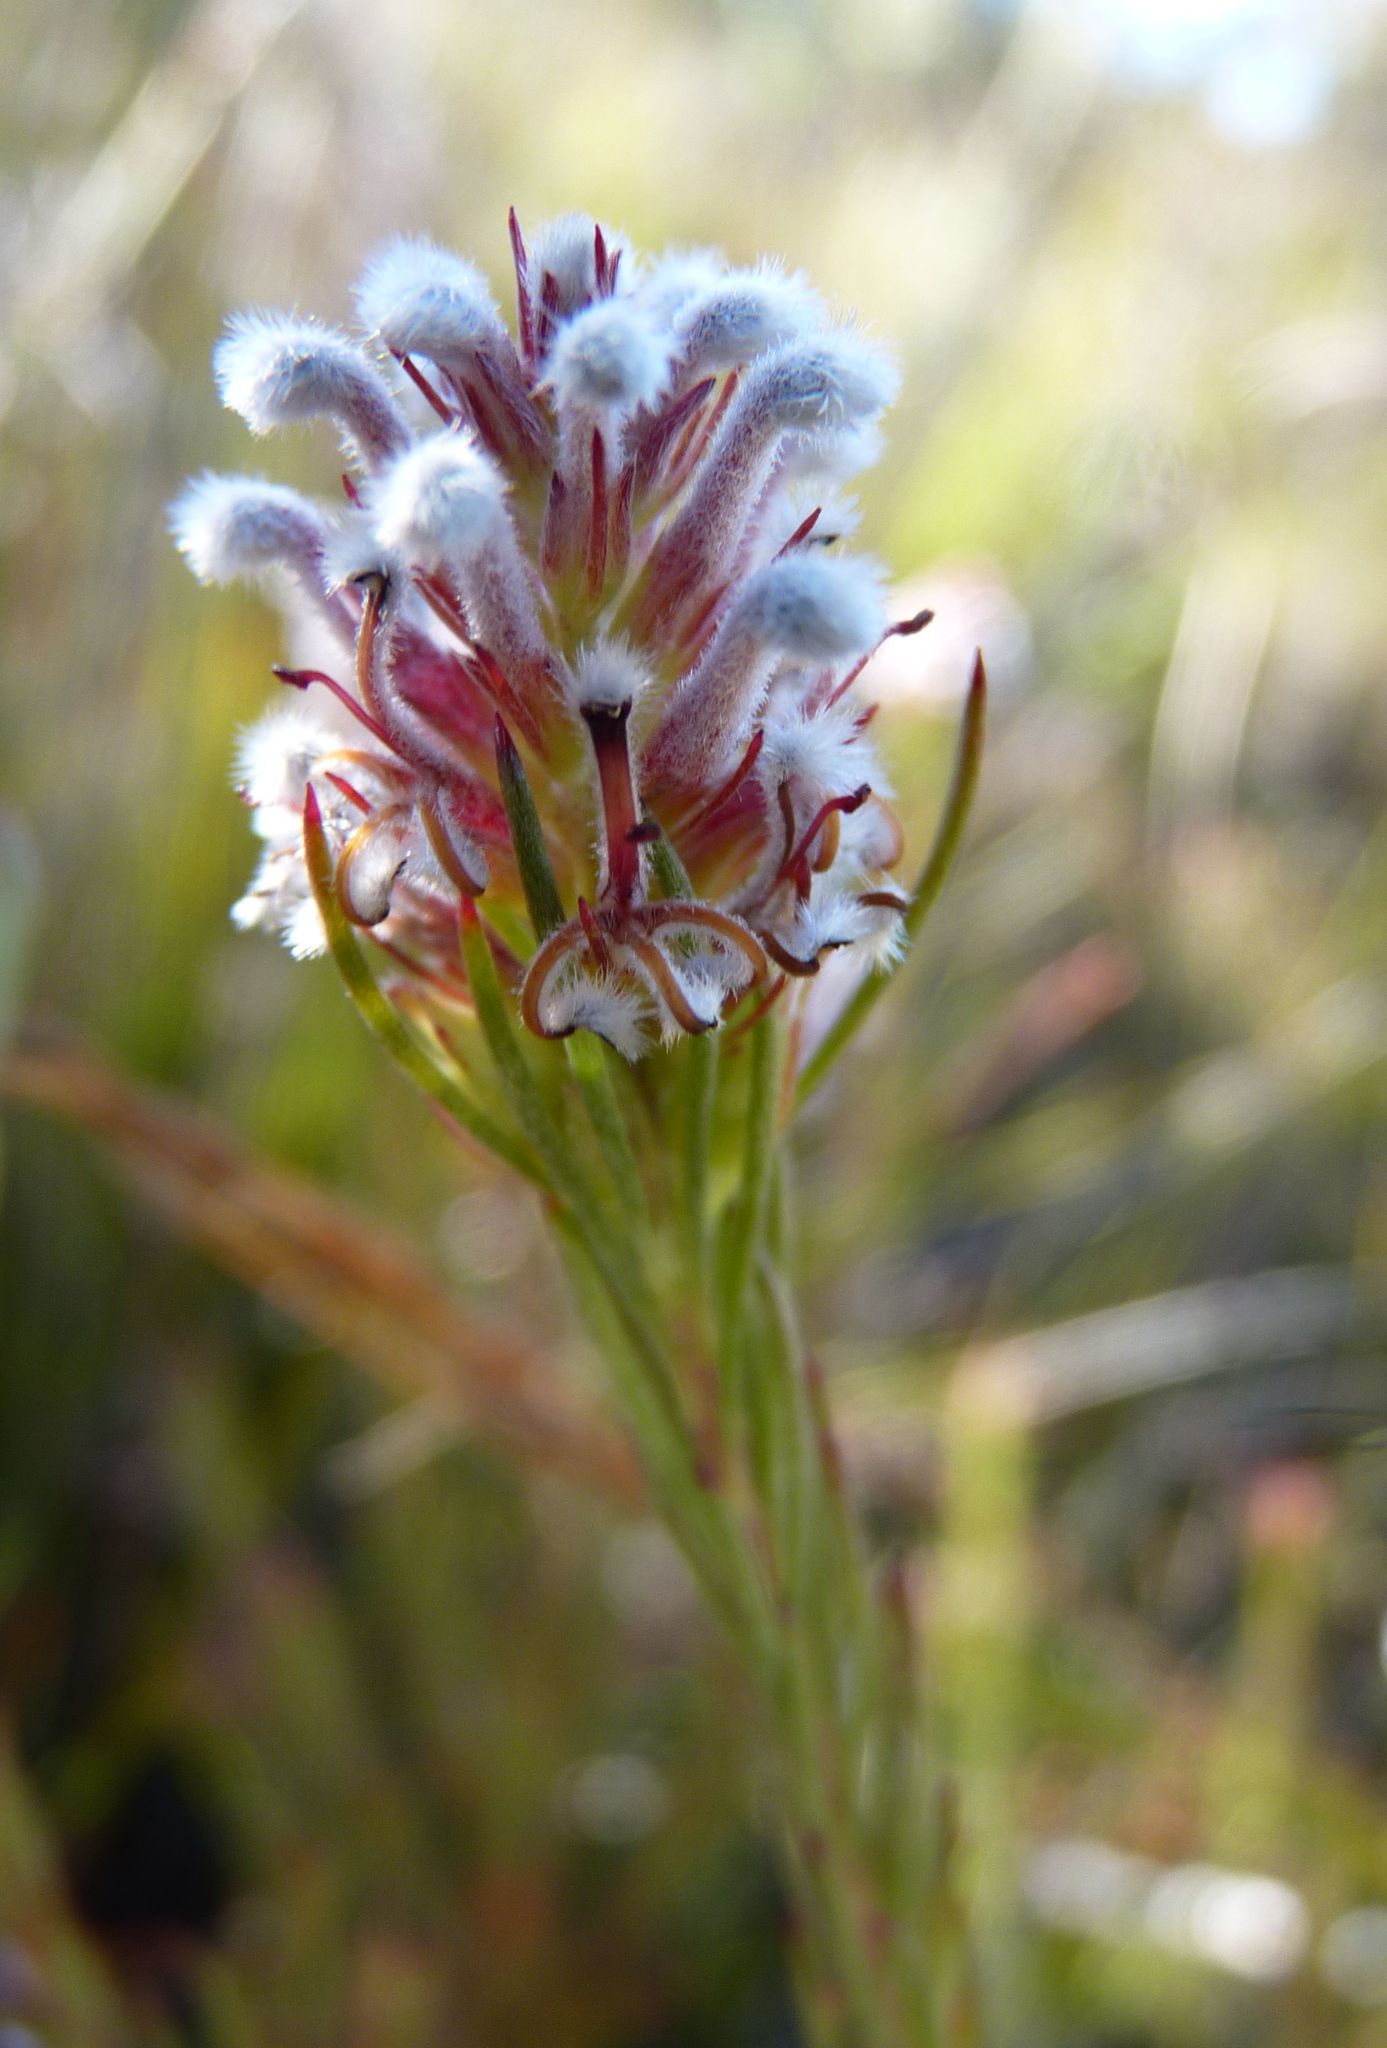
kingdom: Plantae
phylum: Tracheophyta
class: Magnoliopsida
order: Proteales
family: Proteaceae
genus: Spatalla
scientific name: Spatalla barbigera
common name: Fine-leaf spoon
